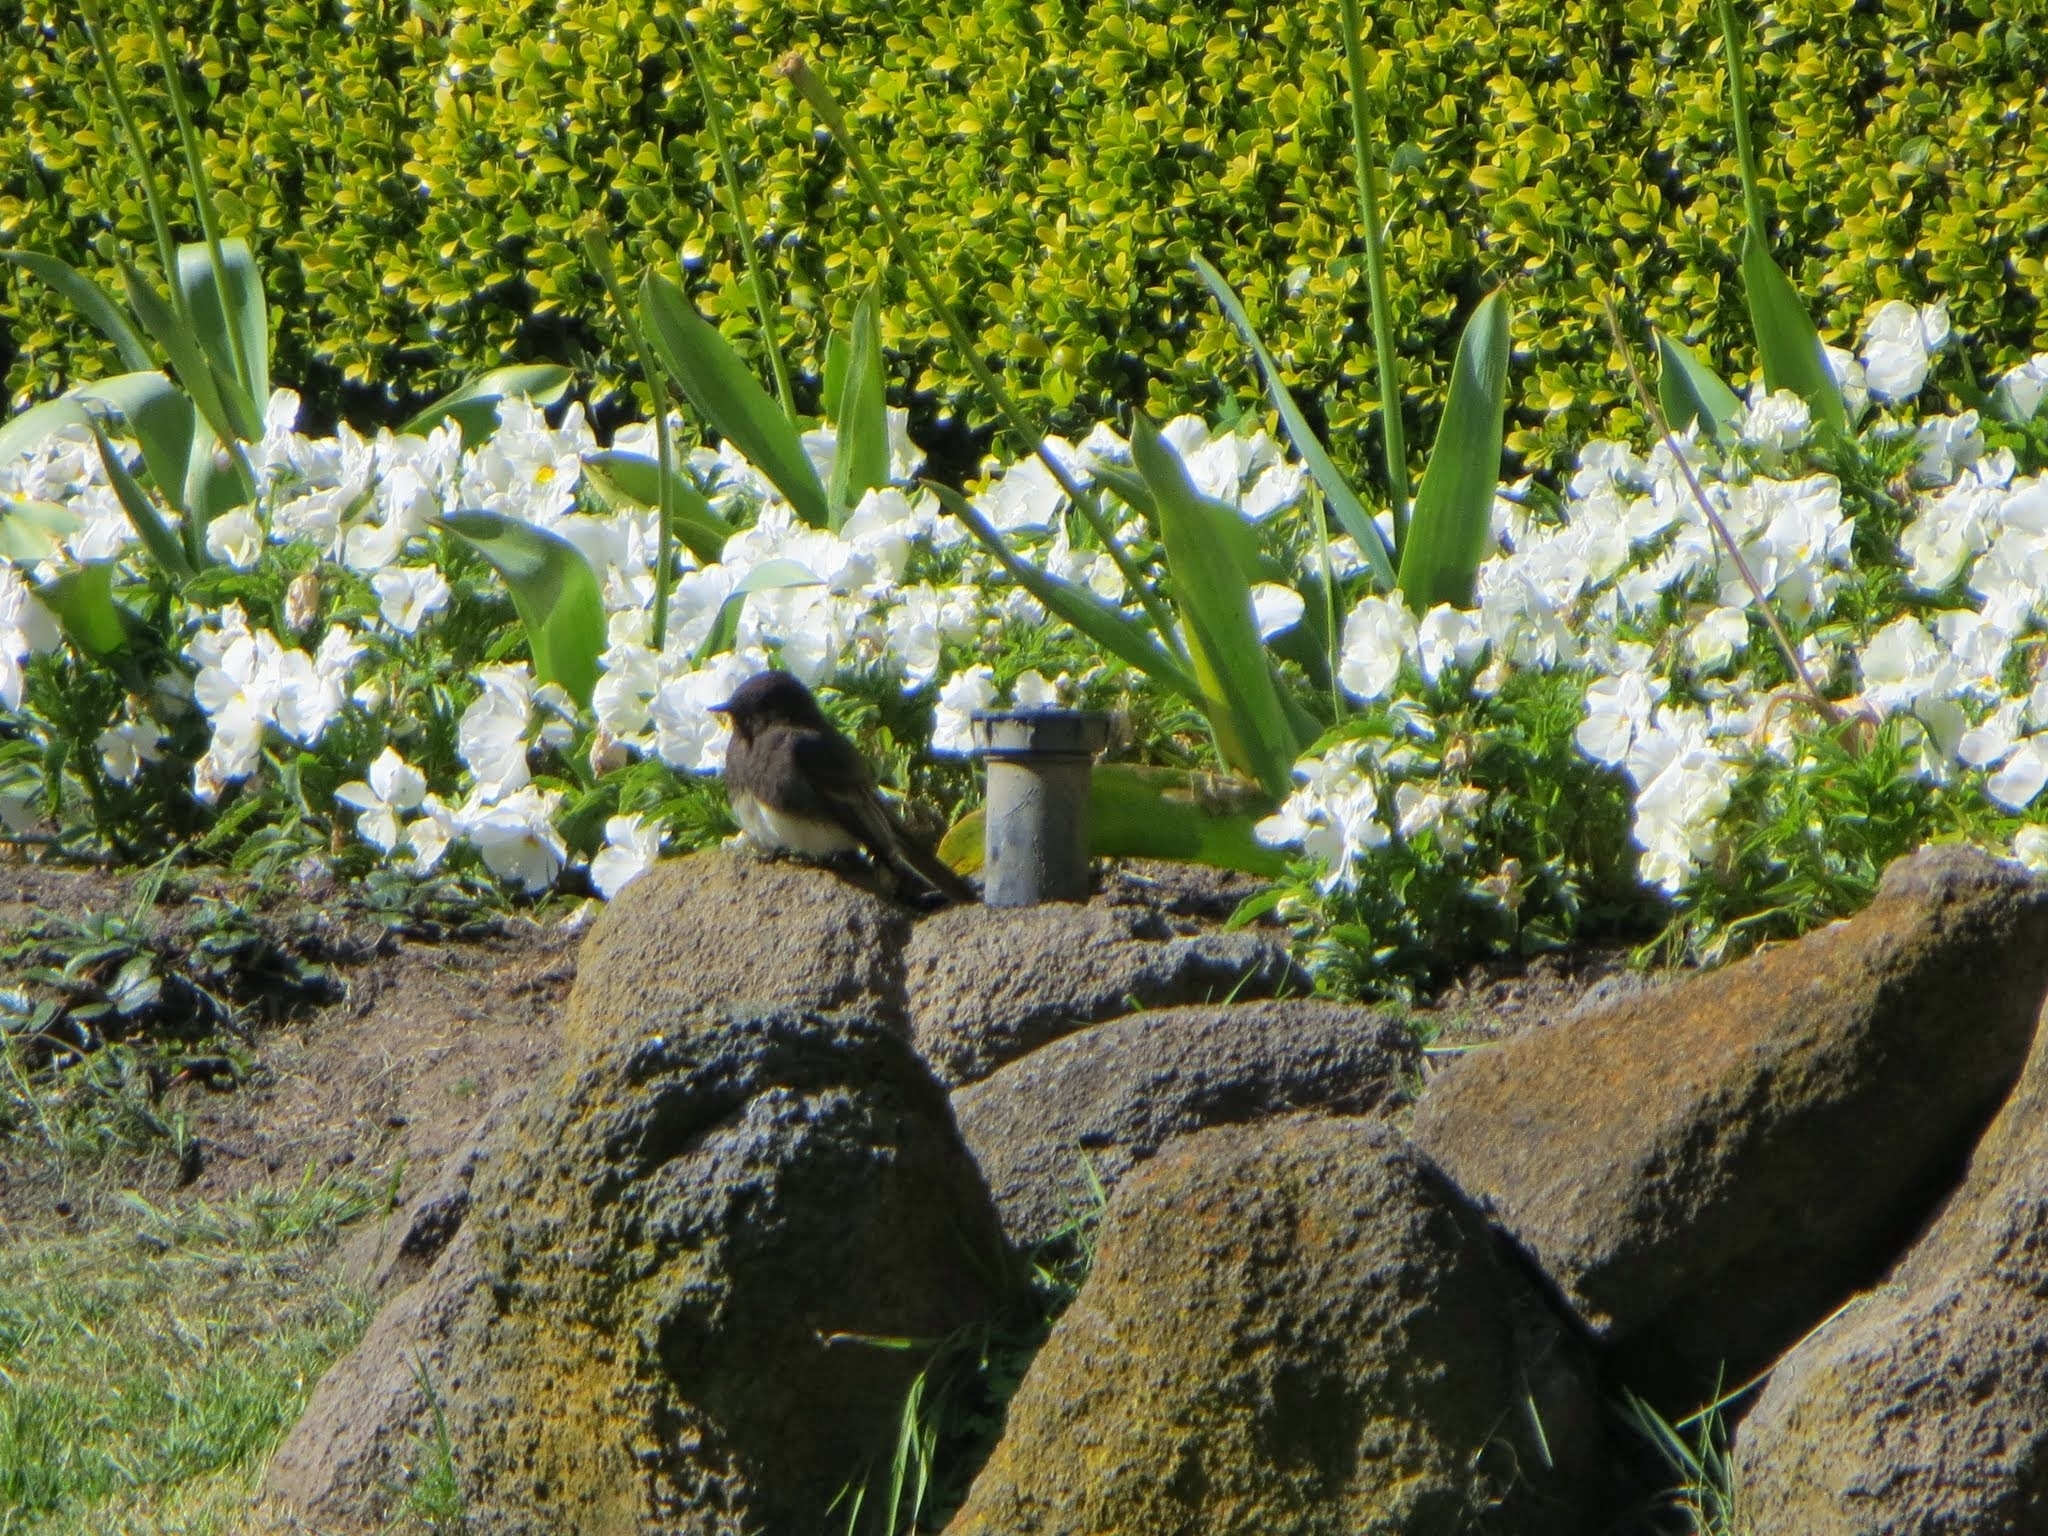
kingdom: Animalia
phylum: Chordata
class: Aves
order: Passeriformes
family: Tyrannidae
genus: Sayornis
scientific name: Sayornis nigricans
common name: Black phoebe
